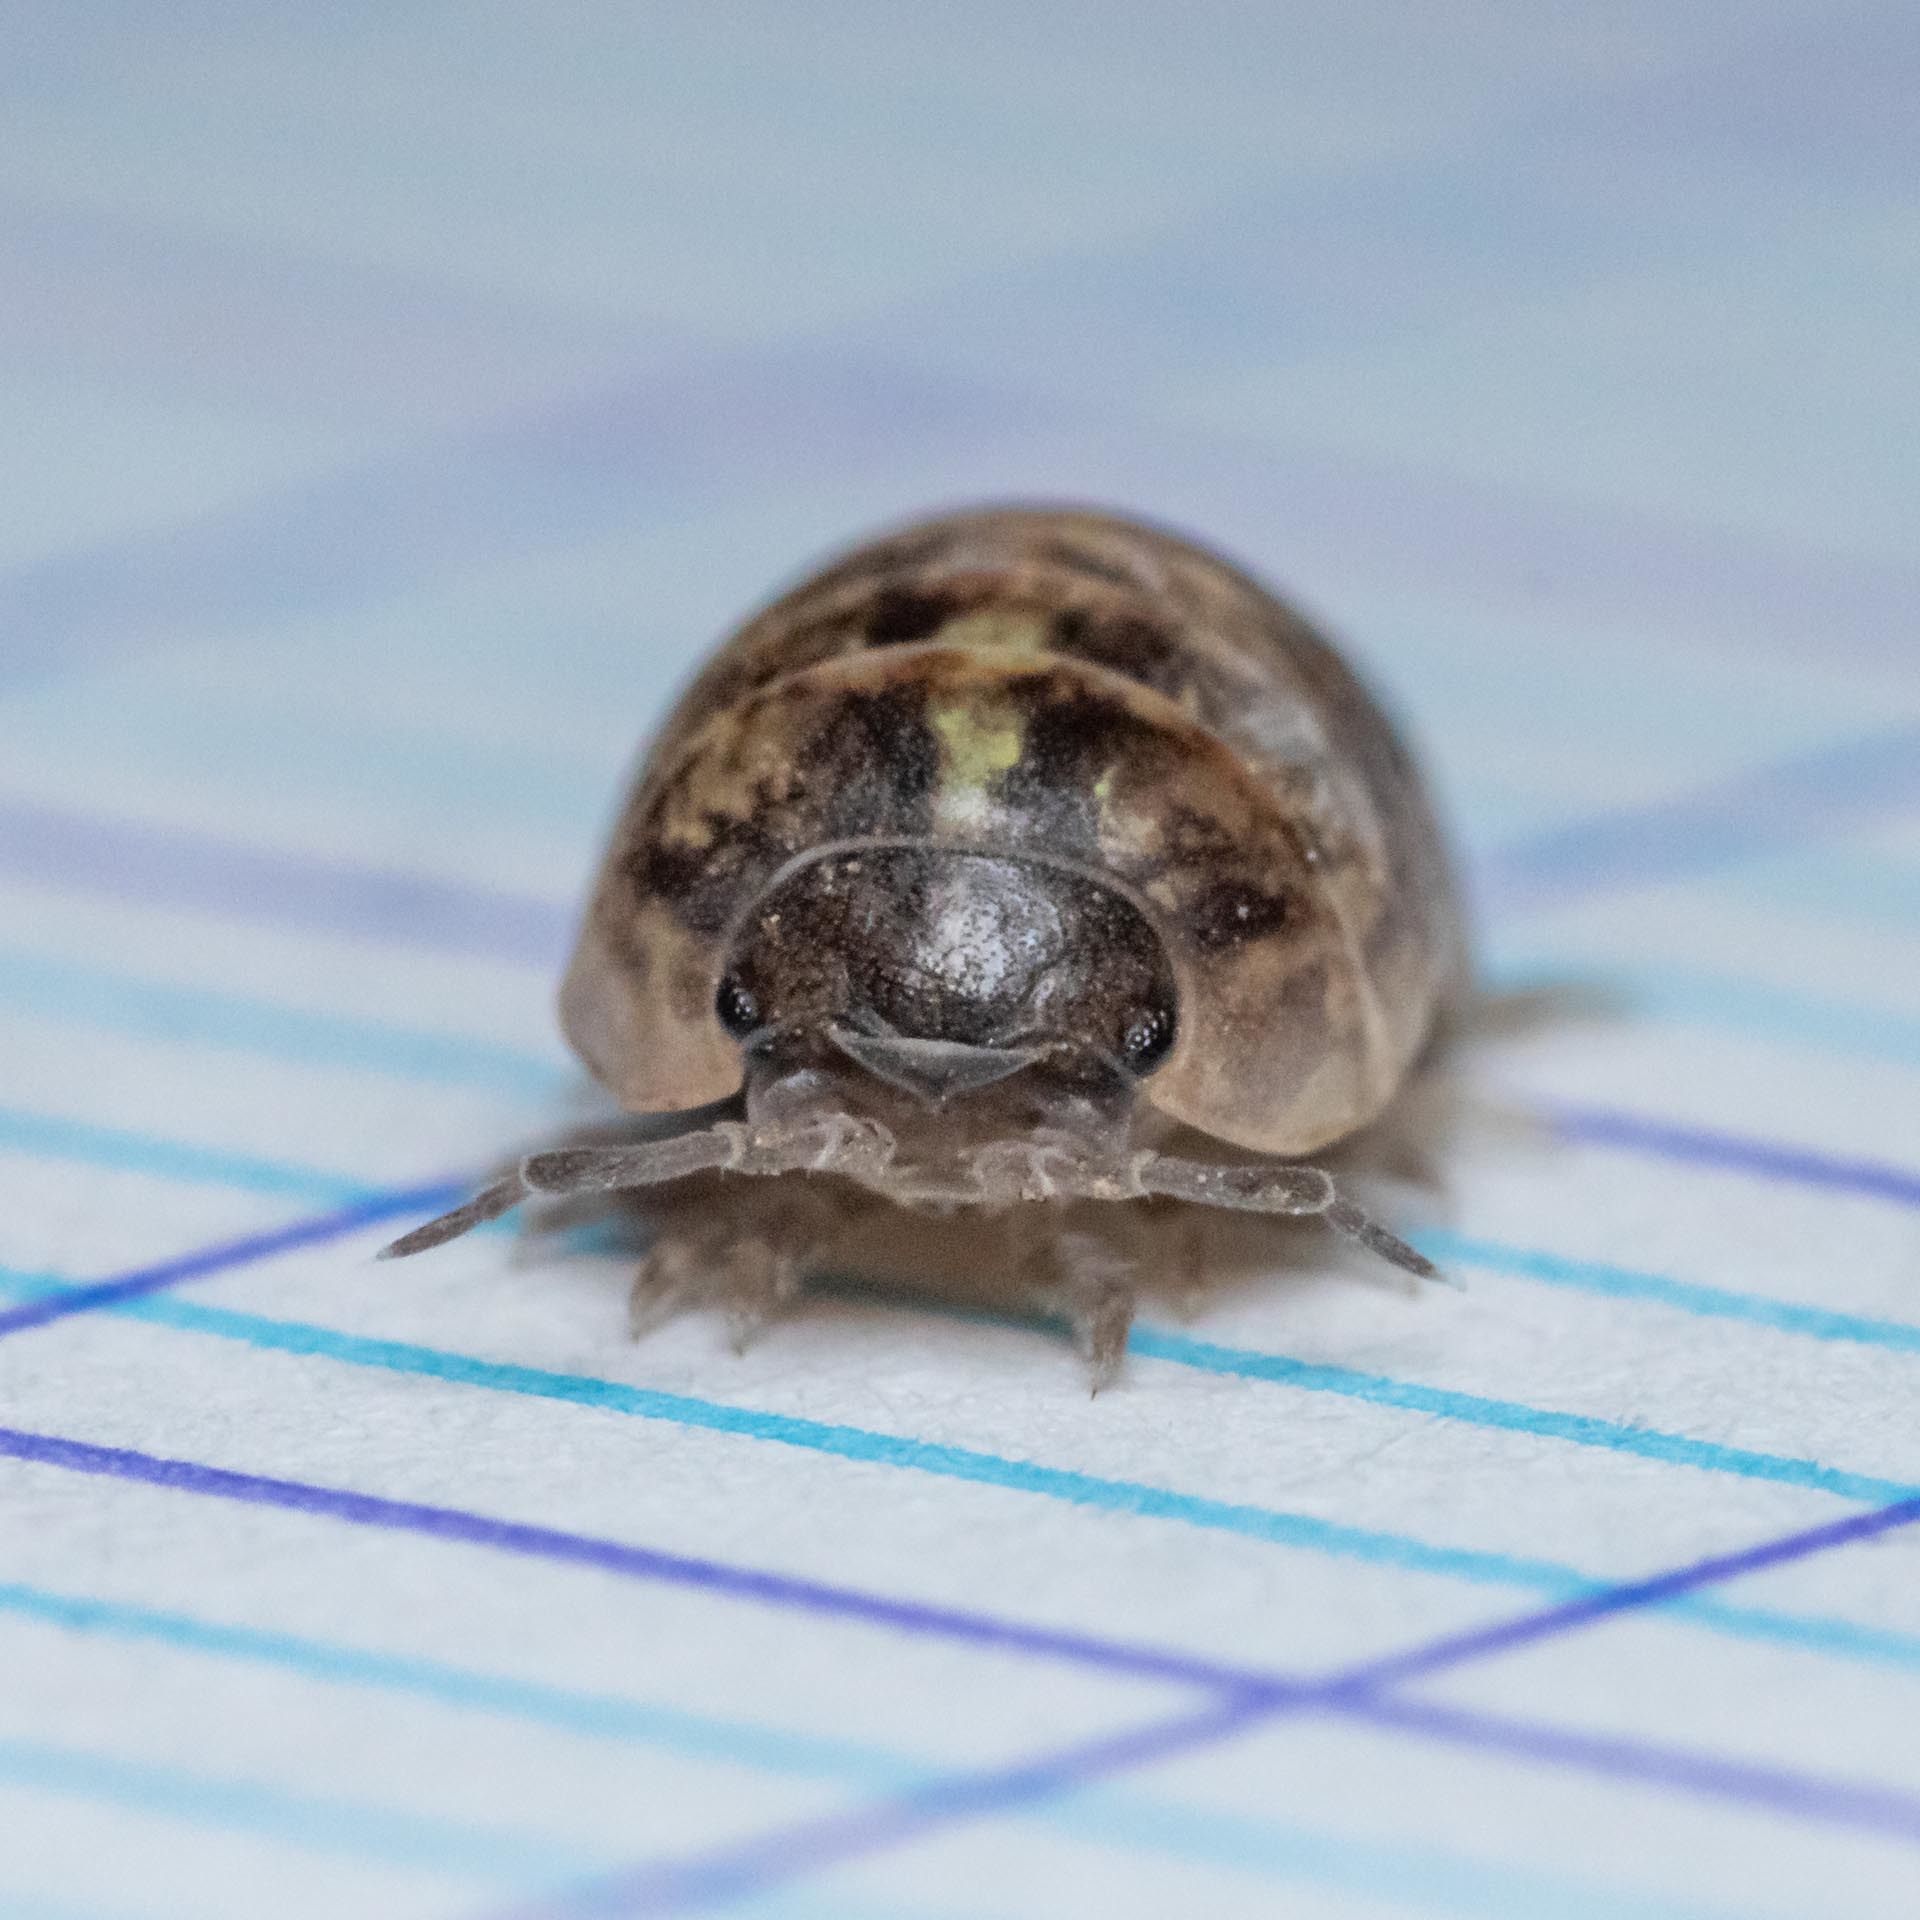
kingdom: Animalia
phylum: Arthropoda
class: Malacostraca
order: Isopoda
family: Armadillidiidae
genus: Armadillidium
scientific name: Armadillidium vulgare
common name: Common pill woodlouse
